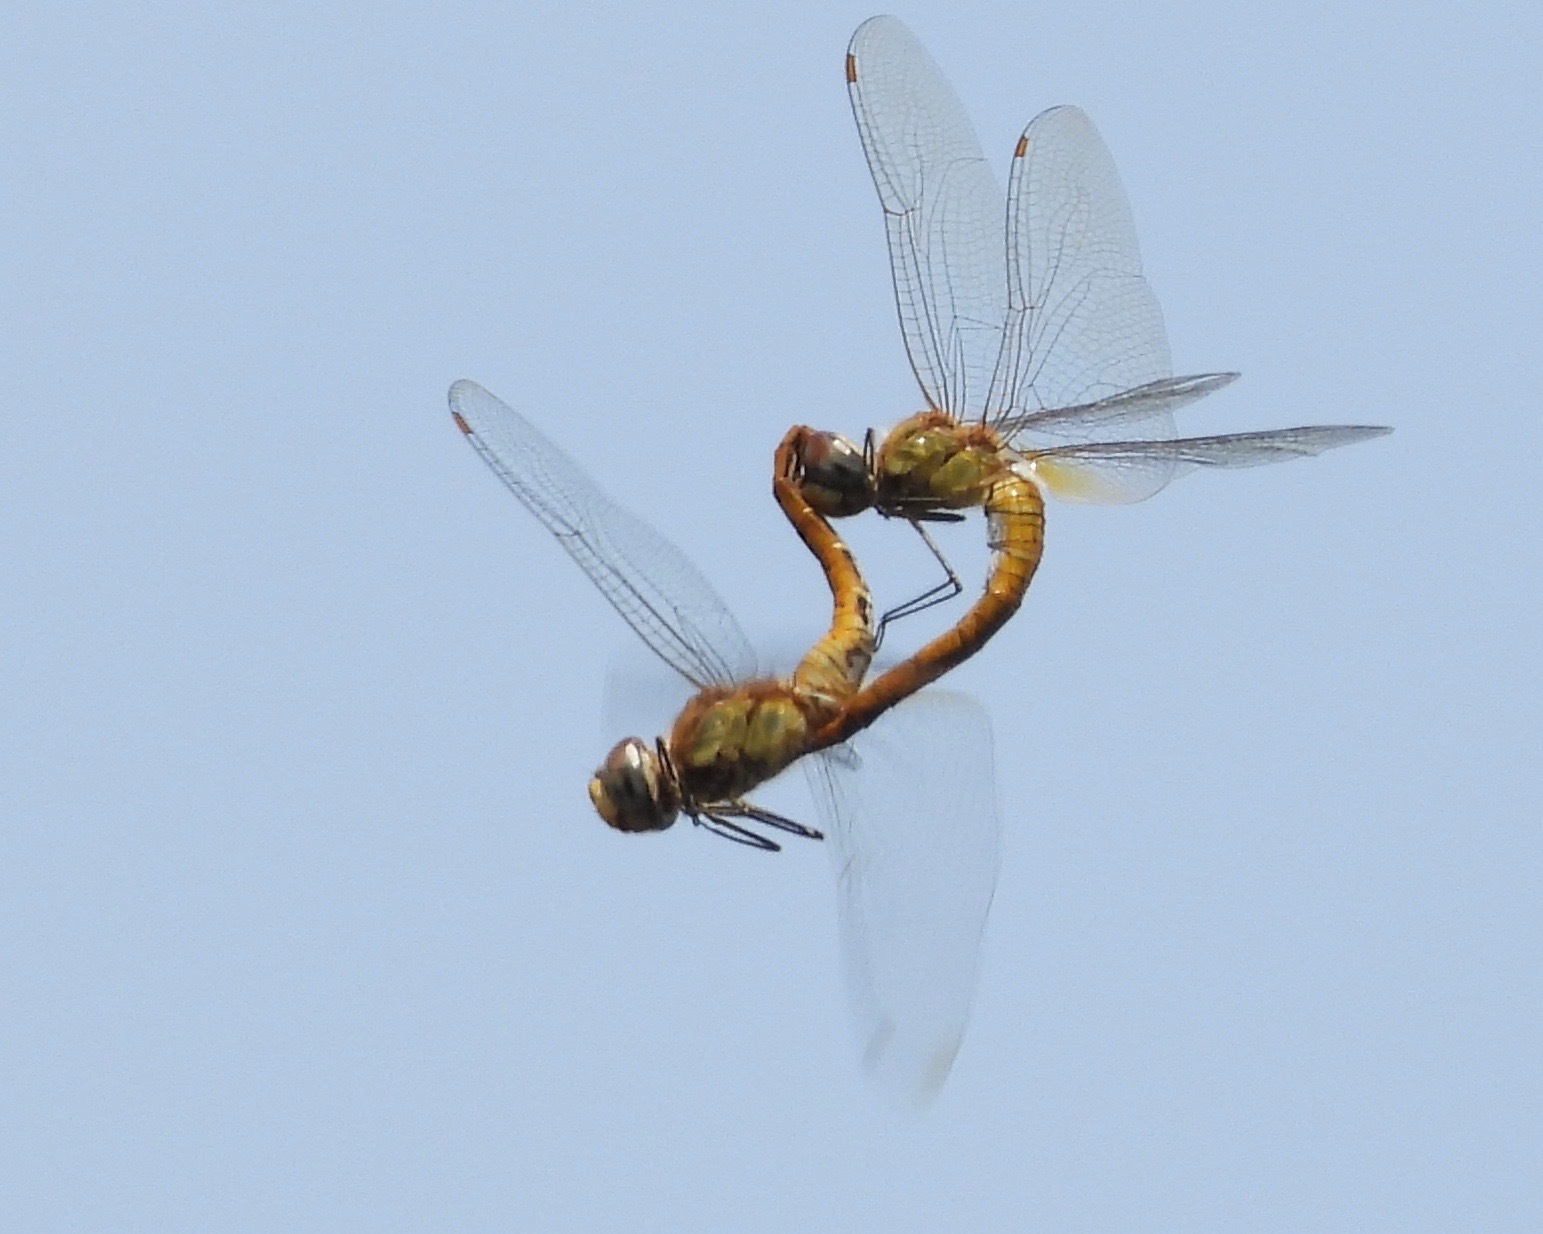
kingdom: Animalia
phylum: Arthropoda
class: Insecta
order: Odonata
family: Libellulidae
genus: Pantala
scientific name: Pantala flavescens
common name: Wandering glider
